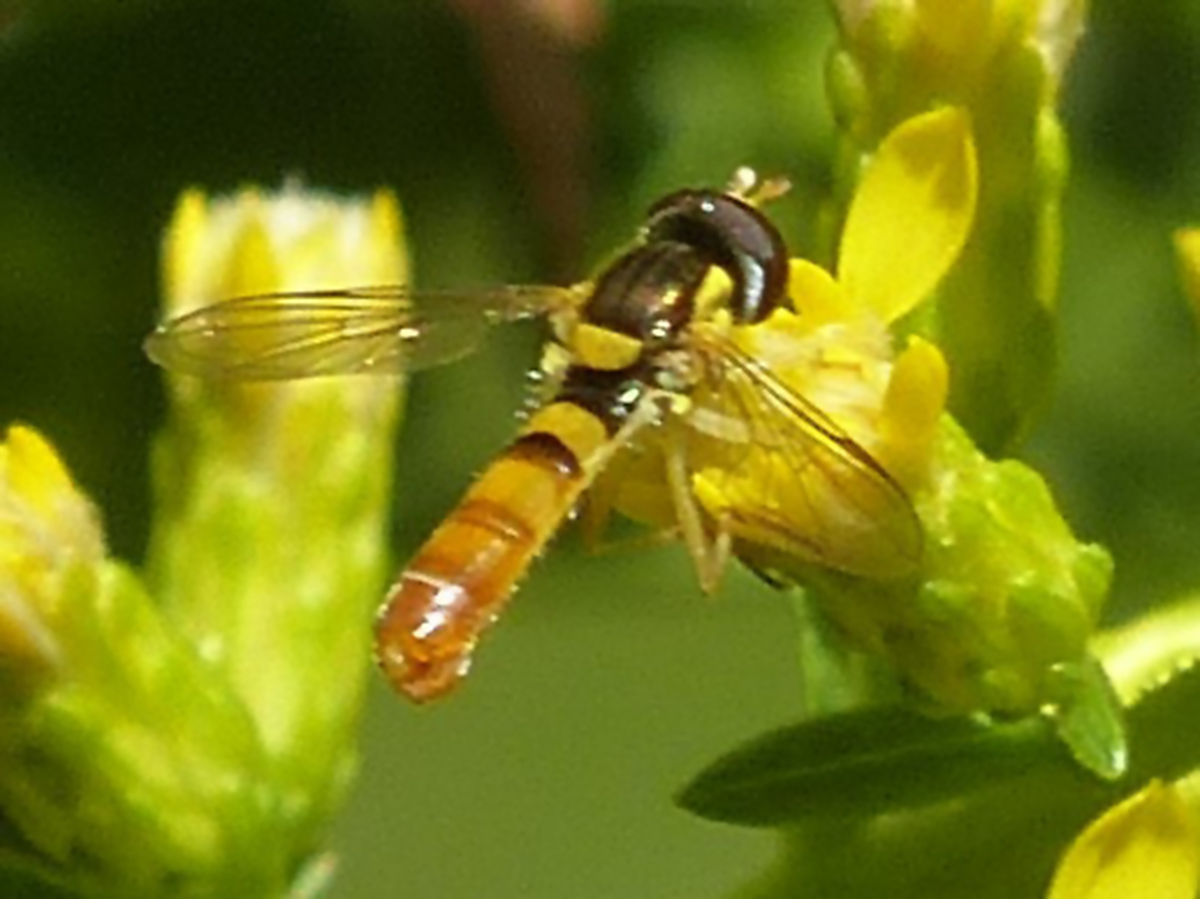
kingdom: Animalia
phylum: Arthropoda
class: Insecta
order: Diptera
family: Syrphidae
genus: Sphaerophoria
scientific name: Sphaerophoria contigua
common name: Tufted globetail
